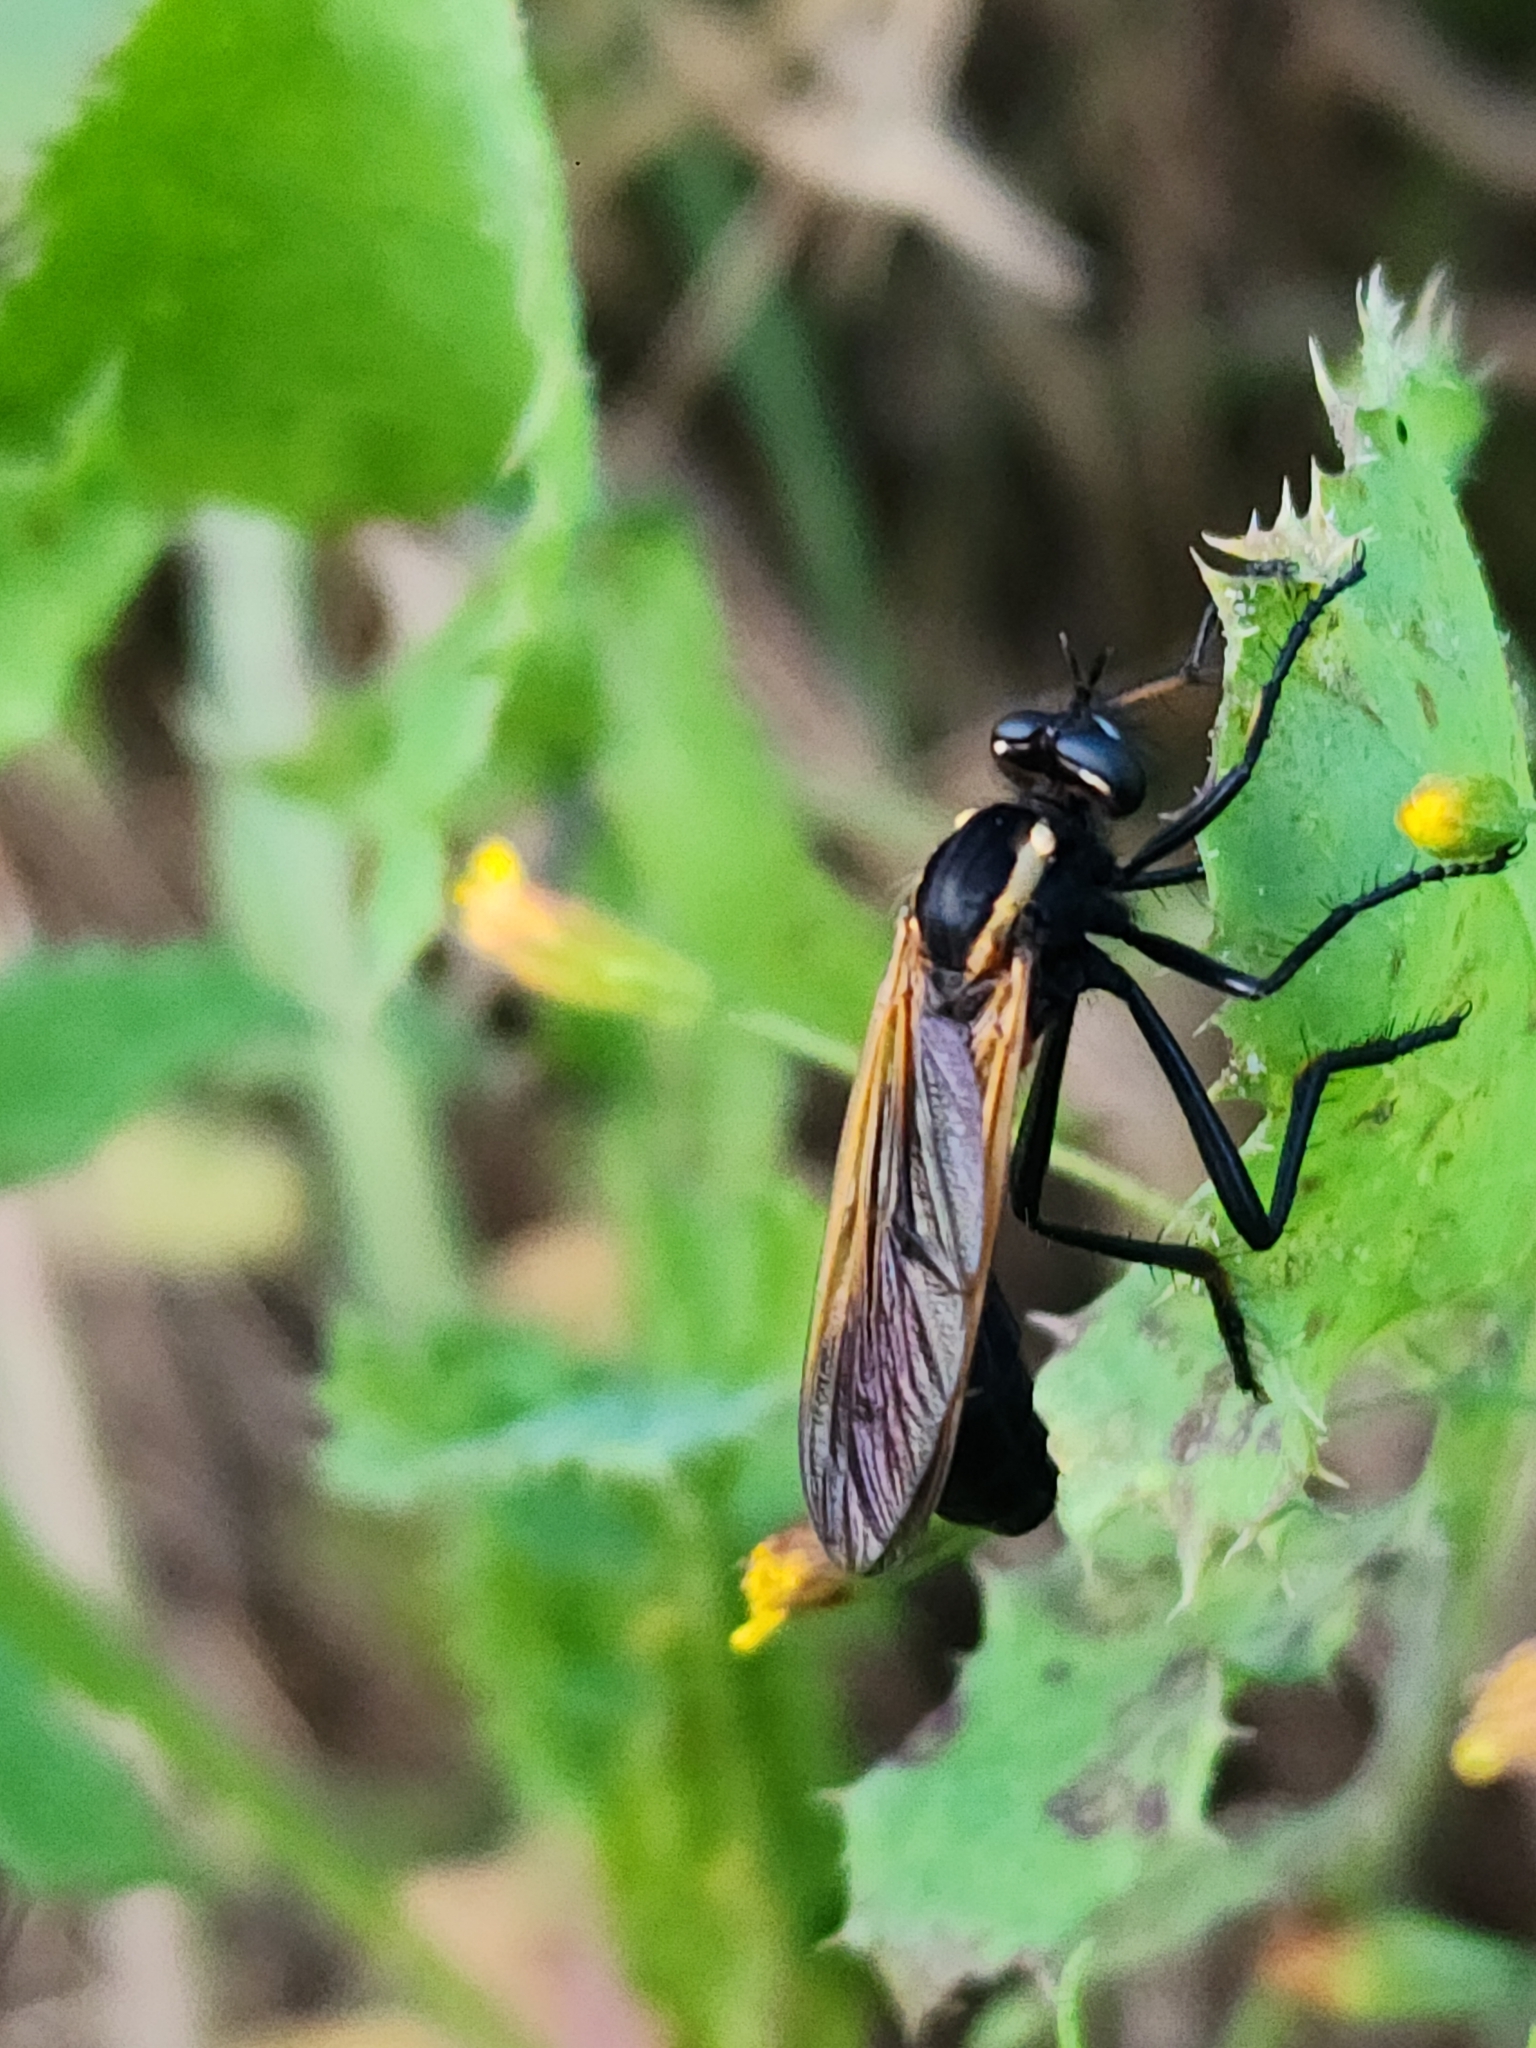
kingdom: Animalia
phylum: Arthropoda
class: Insecta
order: Diptera
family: Asilidae
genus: Cystoprosopa
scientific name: Cystoprosopa
